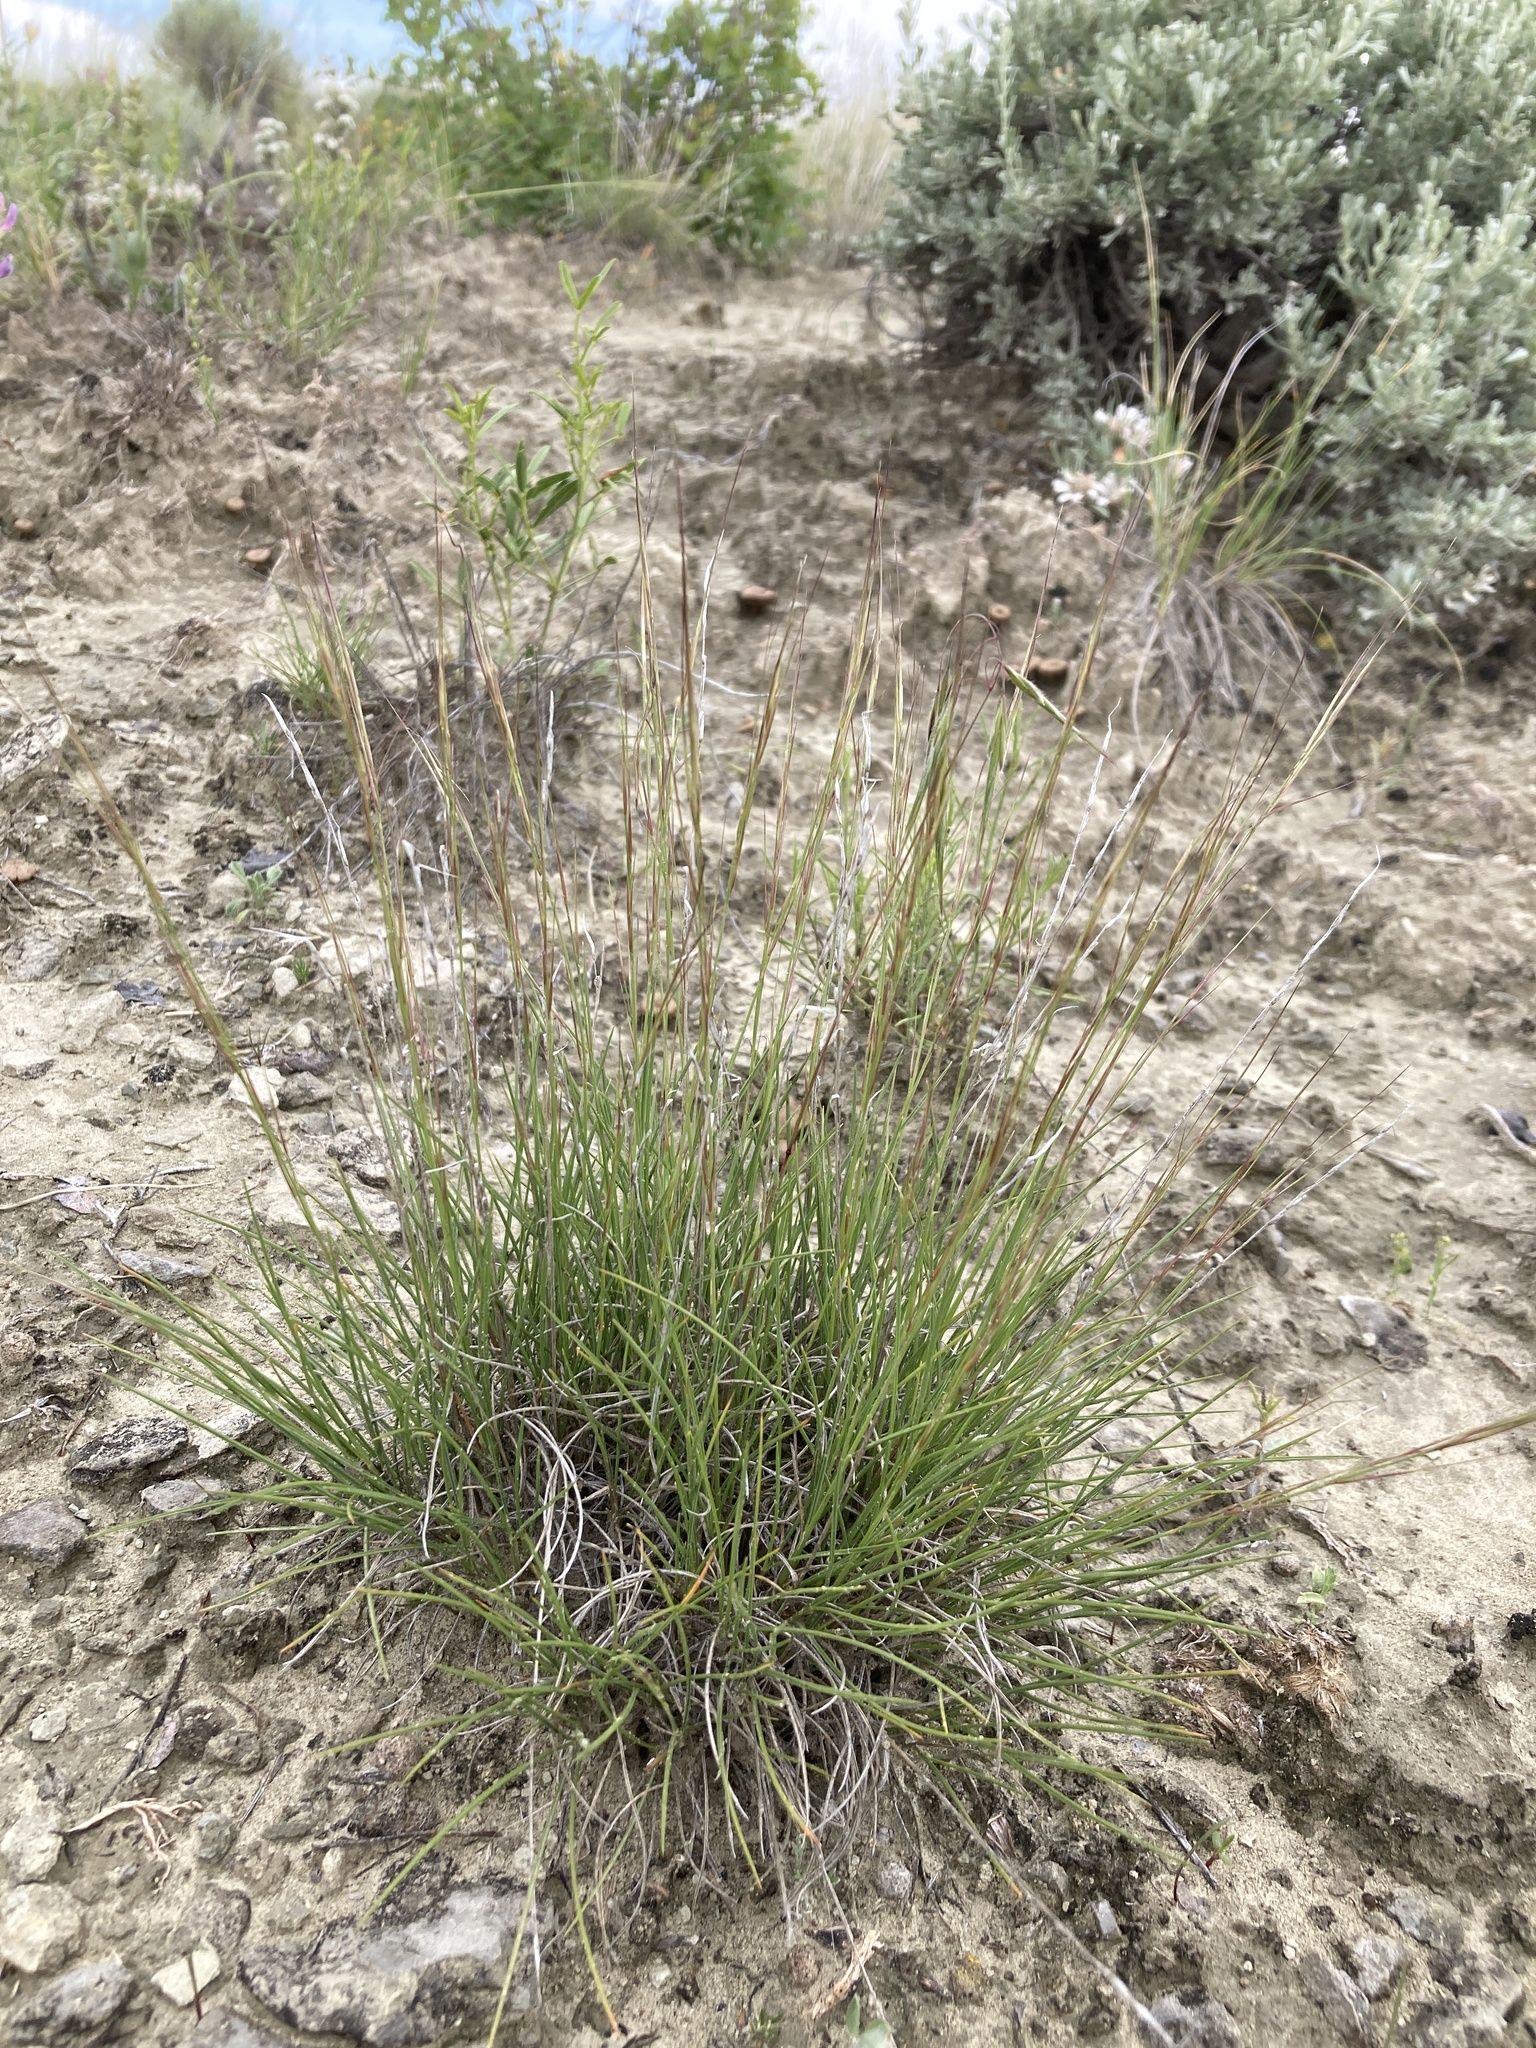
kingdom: Plantae
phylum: Tracheophyta
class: Liliopsida
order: Poales
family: Poaceae
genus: Aristida
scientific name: Aristida purpurea
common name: Purple threeawn
